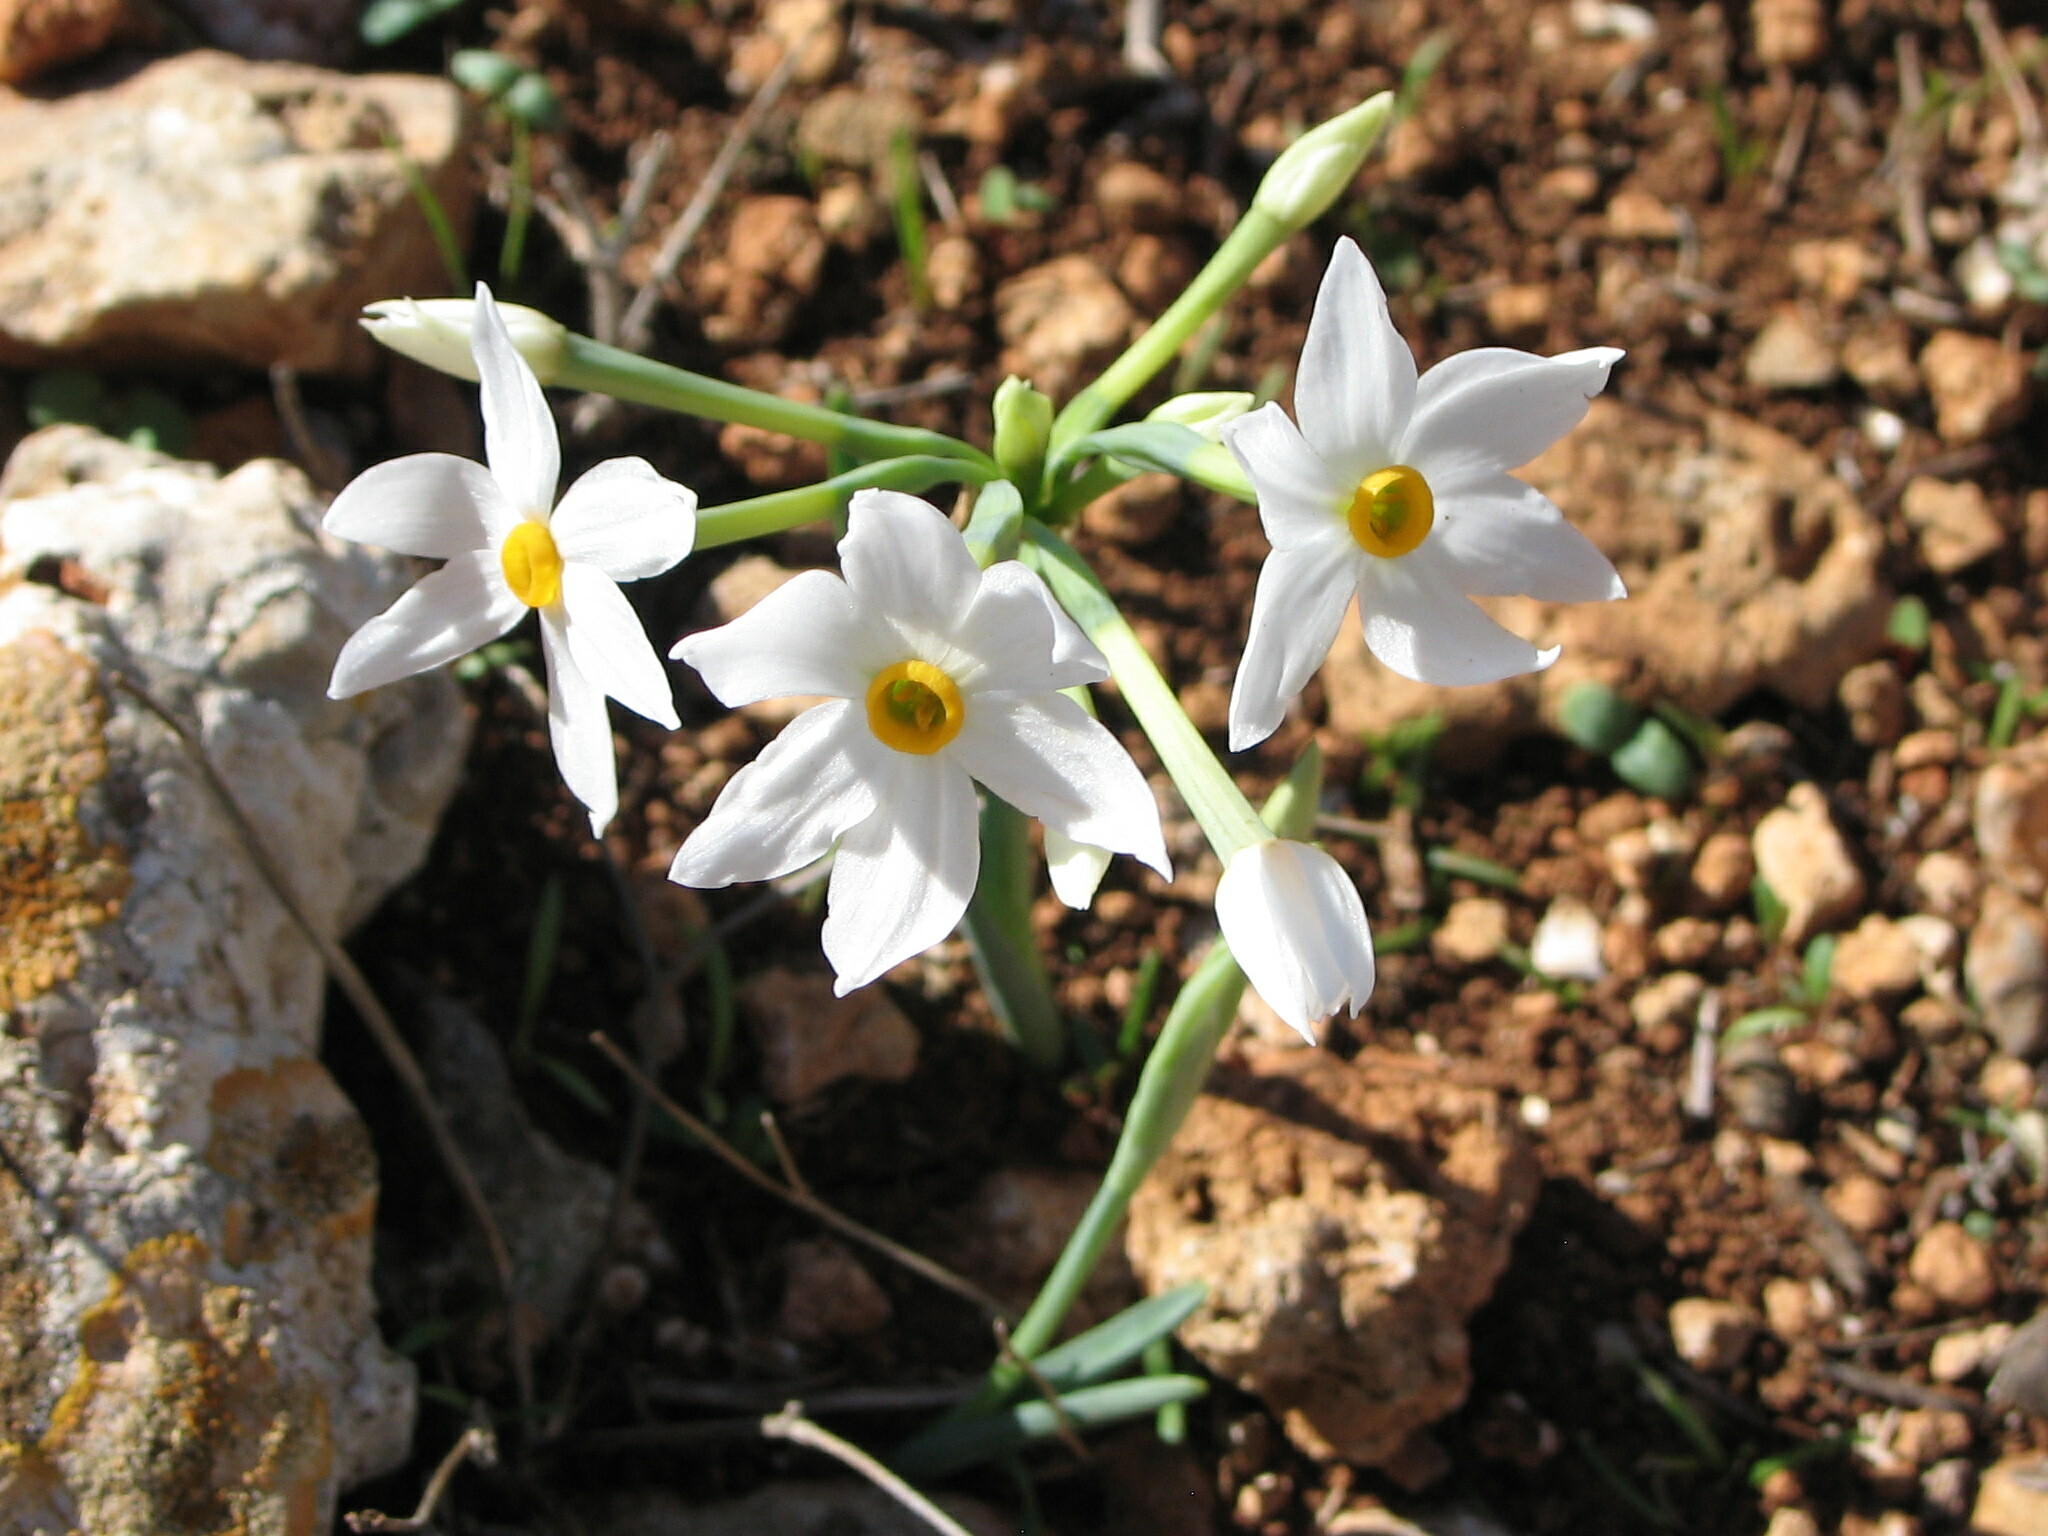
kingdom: Plantae
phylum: Tracheophyta
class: Liliopsida
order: Asparagales
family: Amaryllidaceae
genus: Narcissus
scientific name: Narcissus tazetta
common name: Bunch-flowered daffodil
